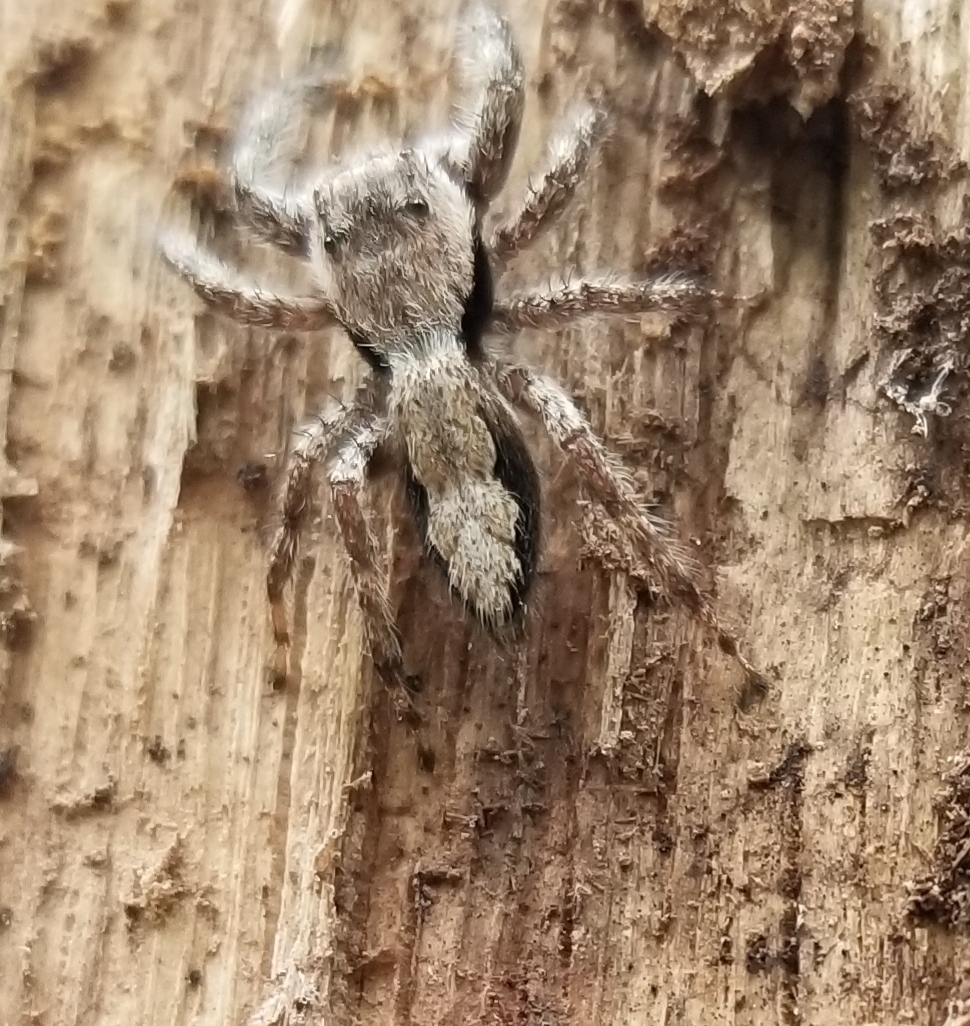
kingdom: Animalia
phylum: Arthropoda
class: Arachnida
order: Araneae
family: Salticidae
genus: Platycryptus
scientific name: Platycryptus undatus
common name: Tan jumping spider
